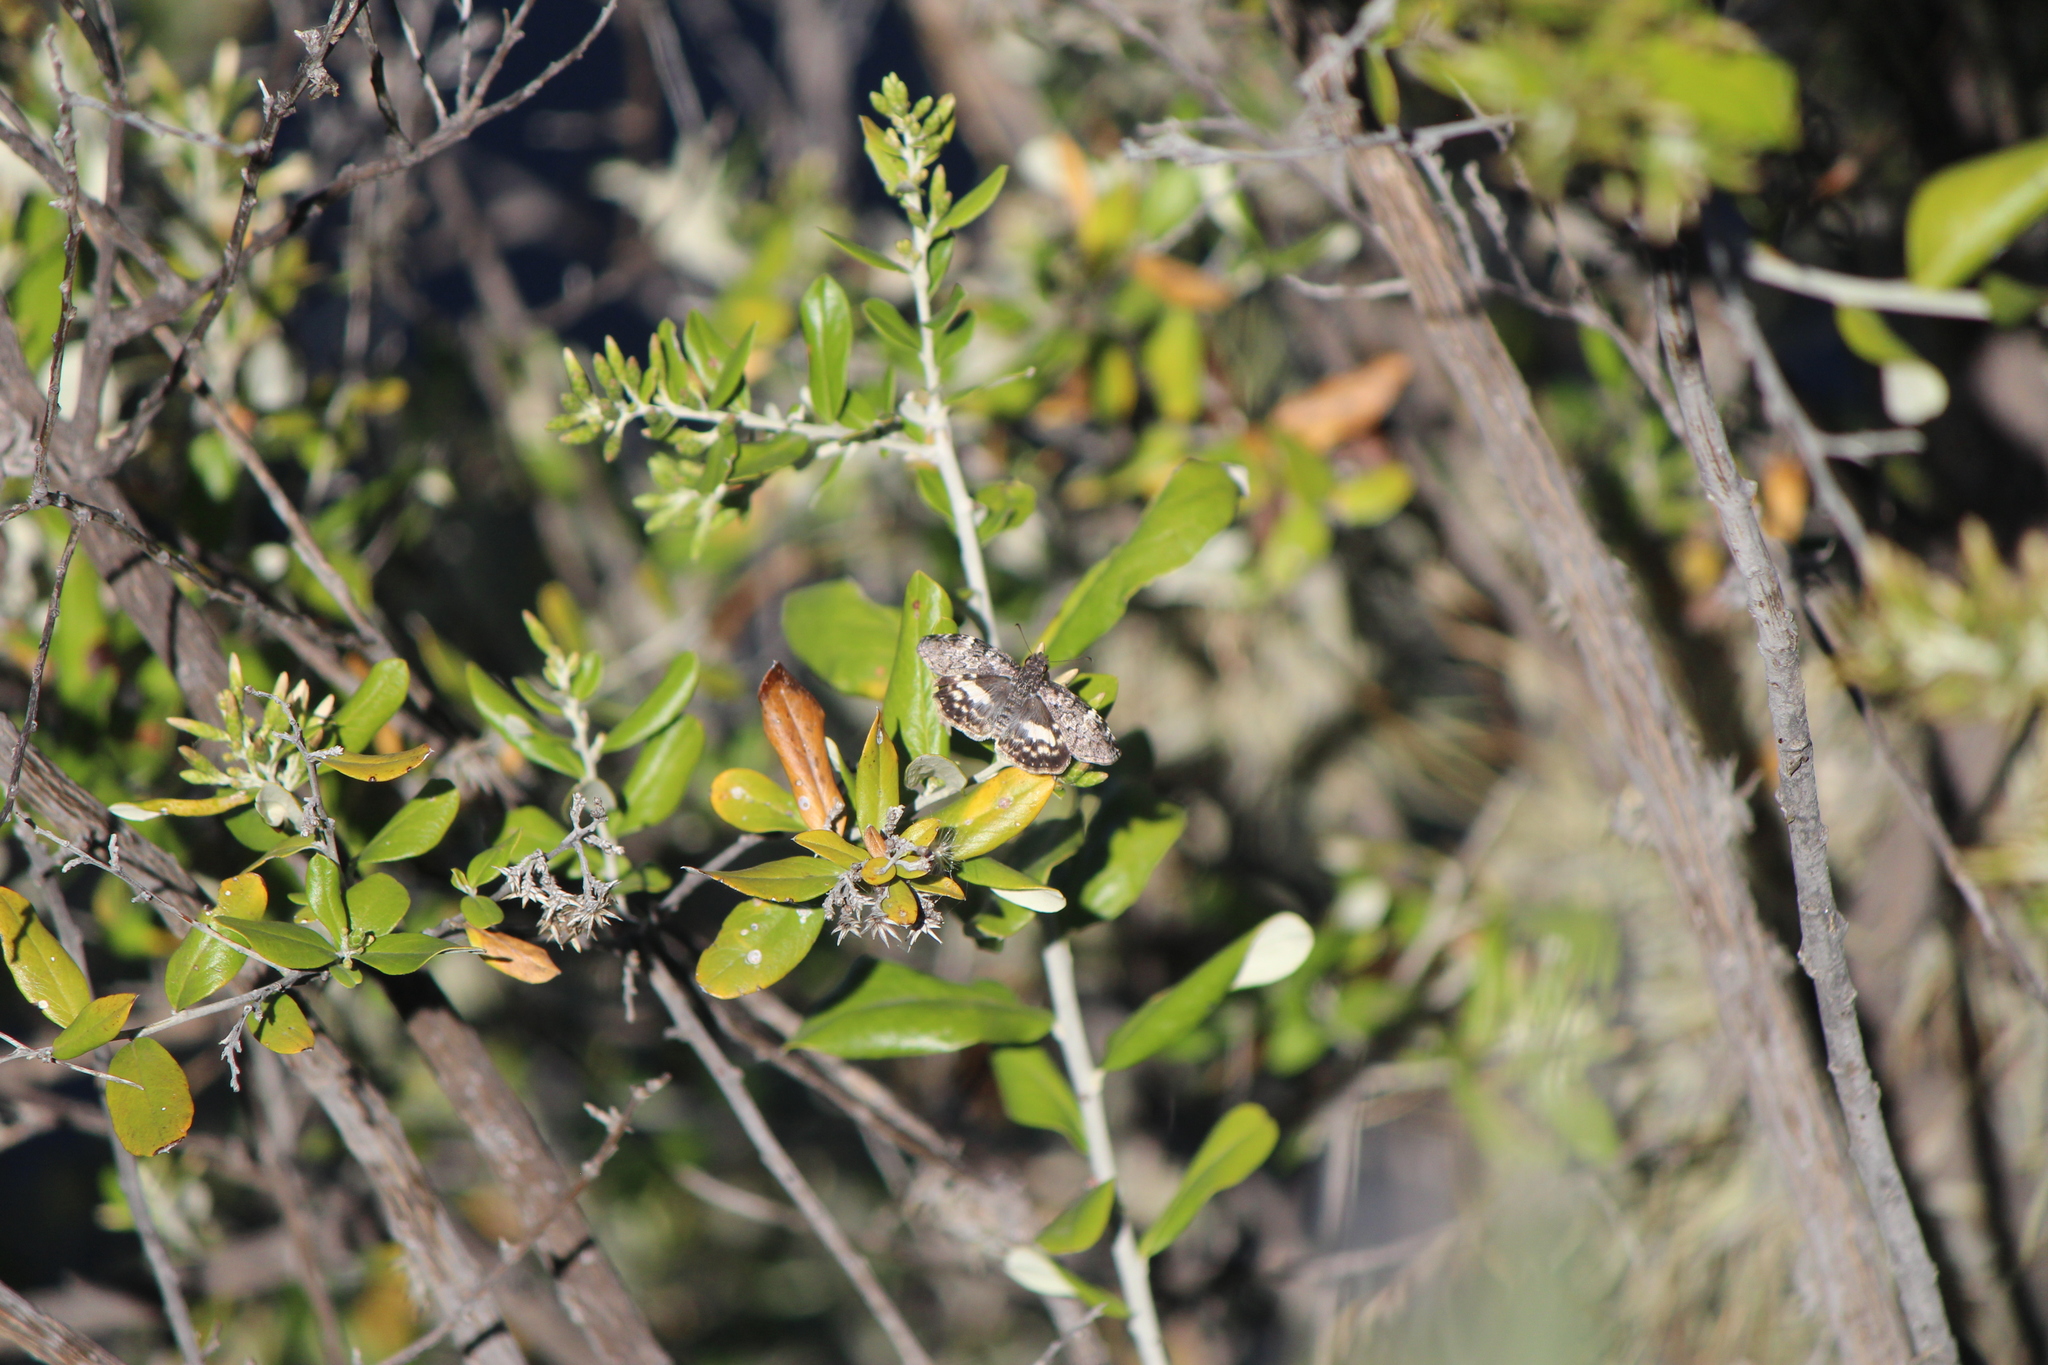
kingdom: Animalia
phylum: Arthropoda
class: Insecta
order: Lepidoptera
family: Hesperiidae
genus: Chiothion
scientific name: Chiothion georgina
